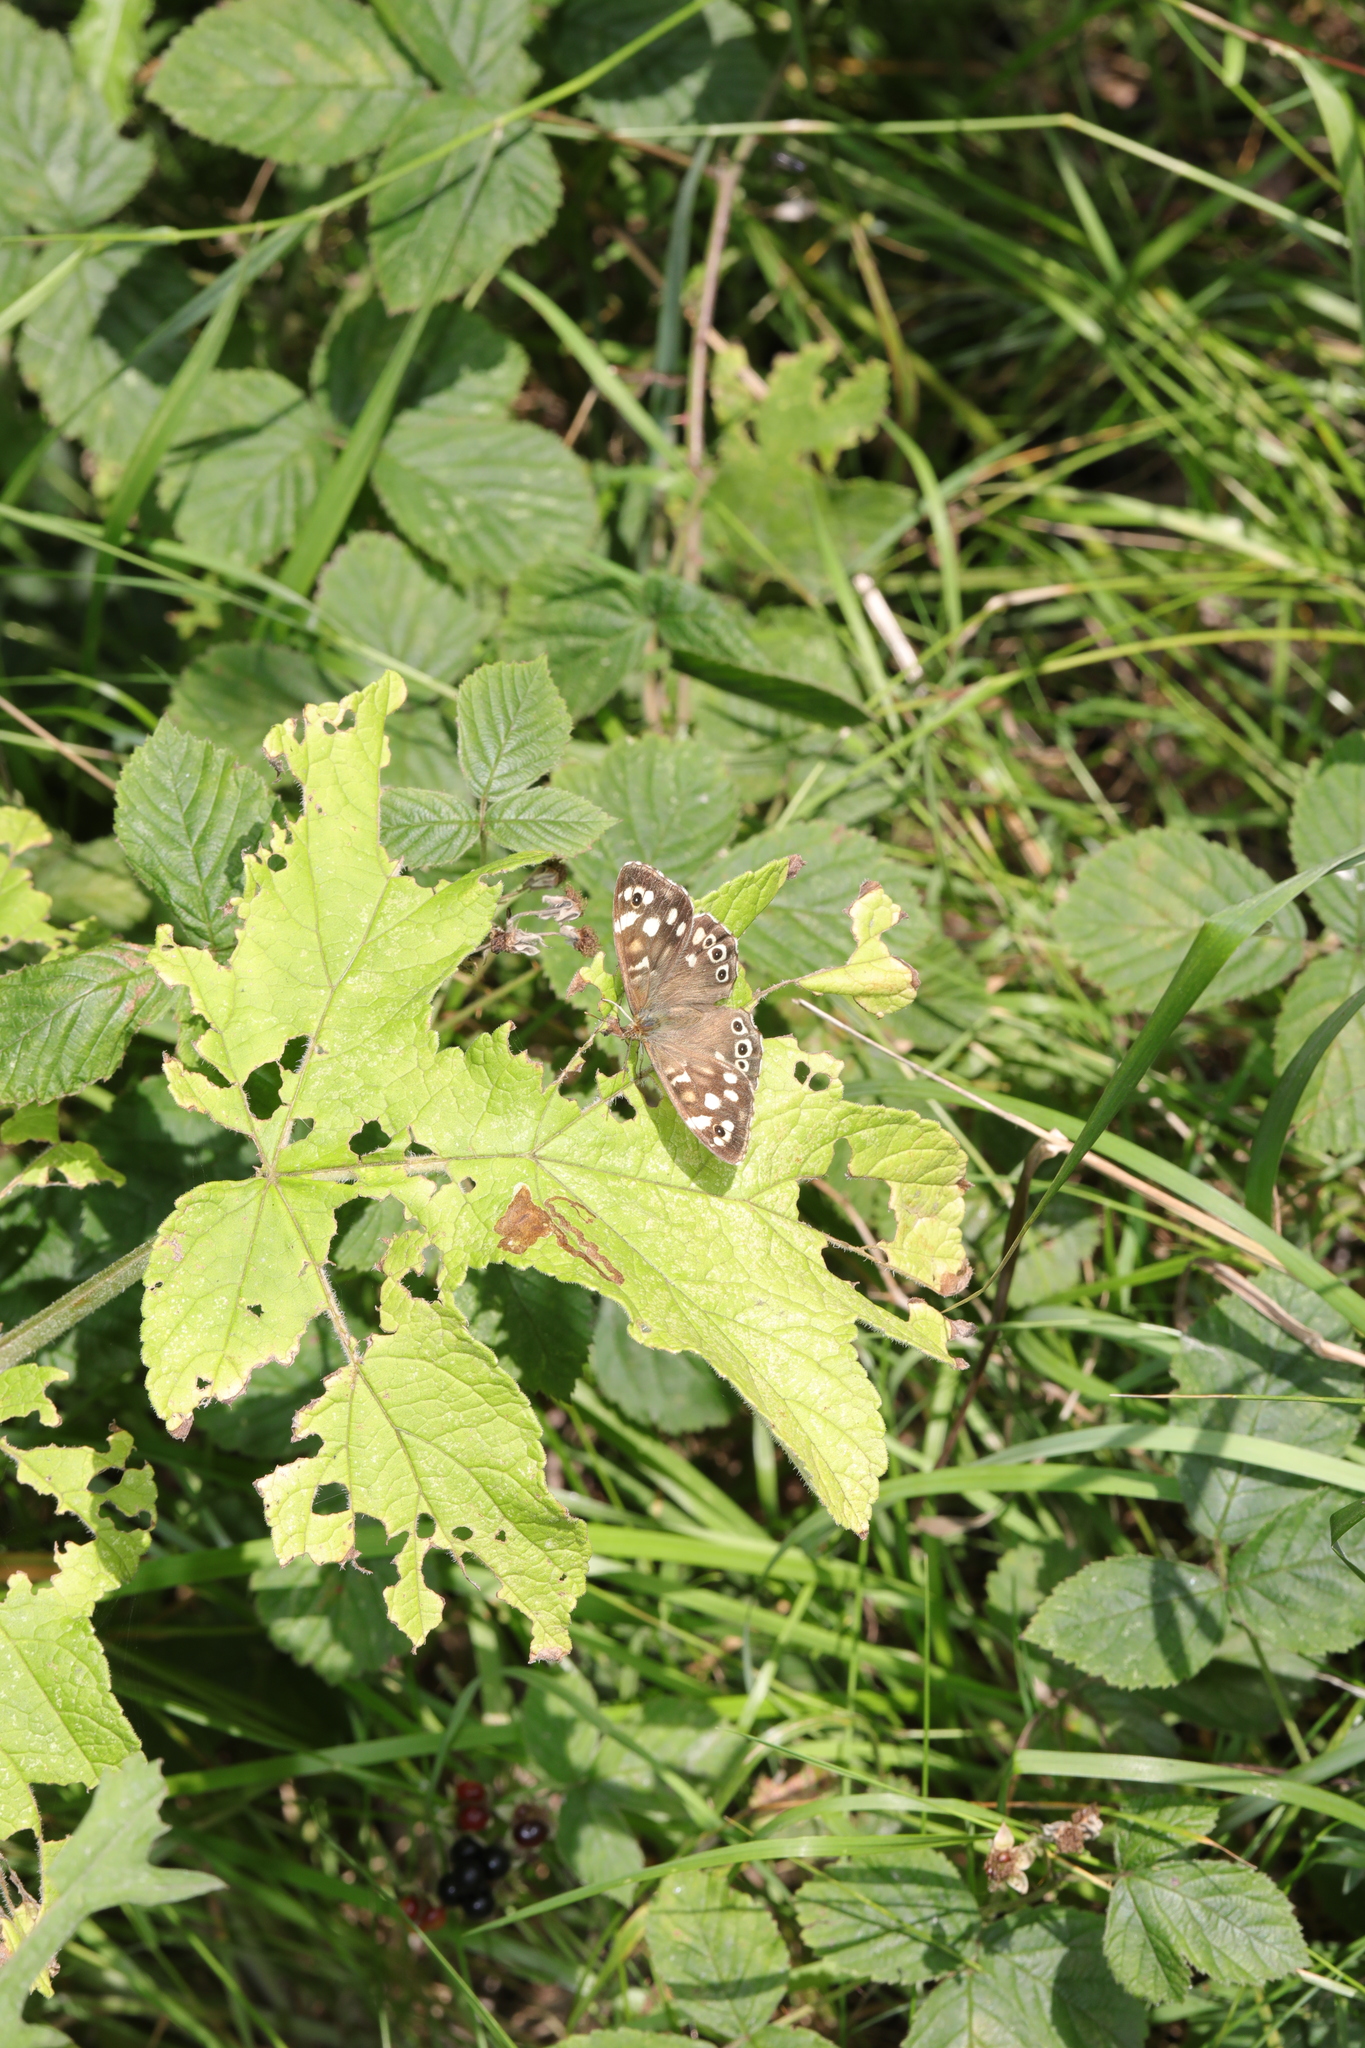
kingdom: Animalia
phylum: Arthropoda
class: Insecta
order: Lepidoptera
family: Nymphalidae
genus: Pararge
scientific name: Pararge aegeria
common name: Speckled wood
